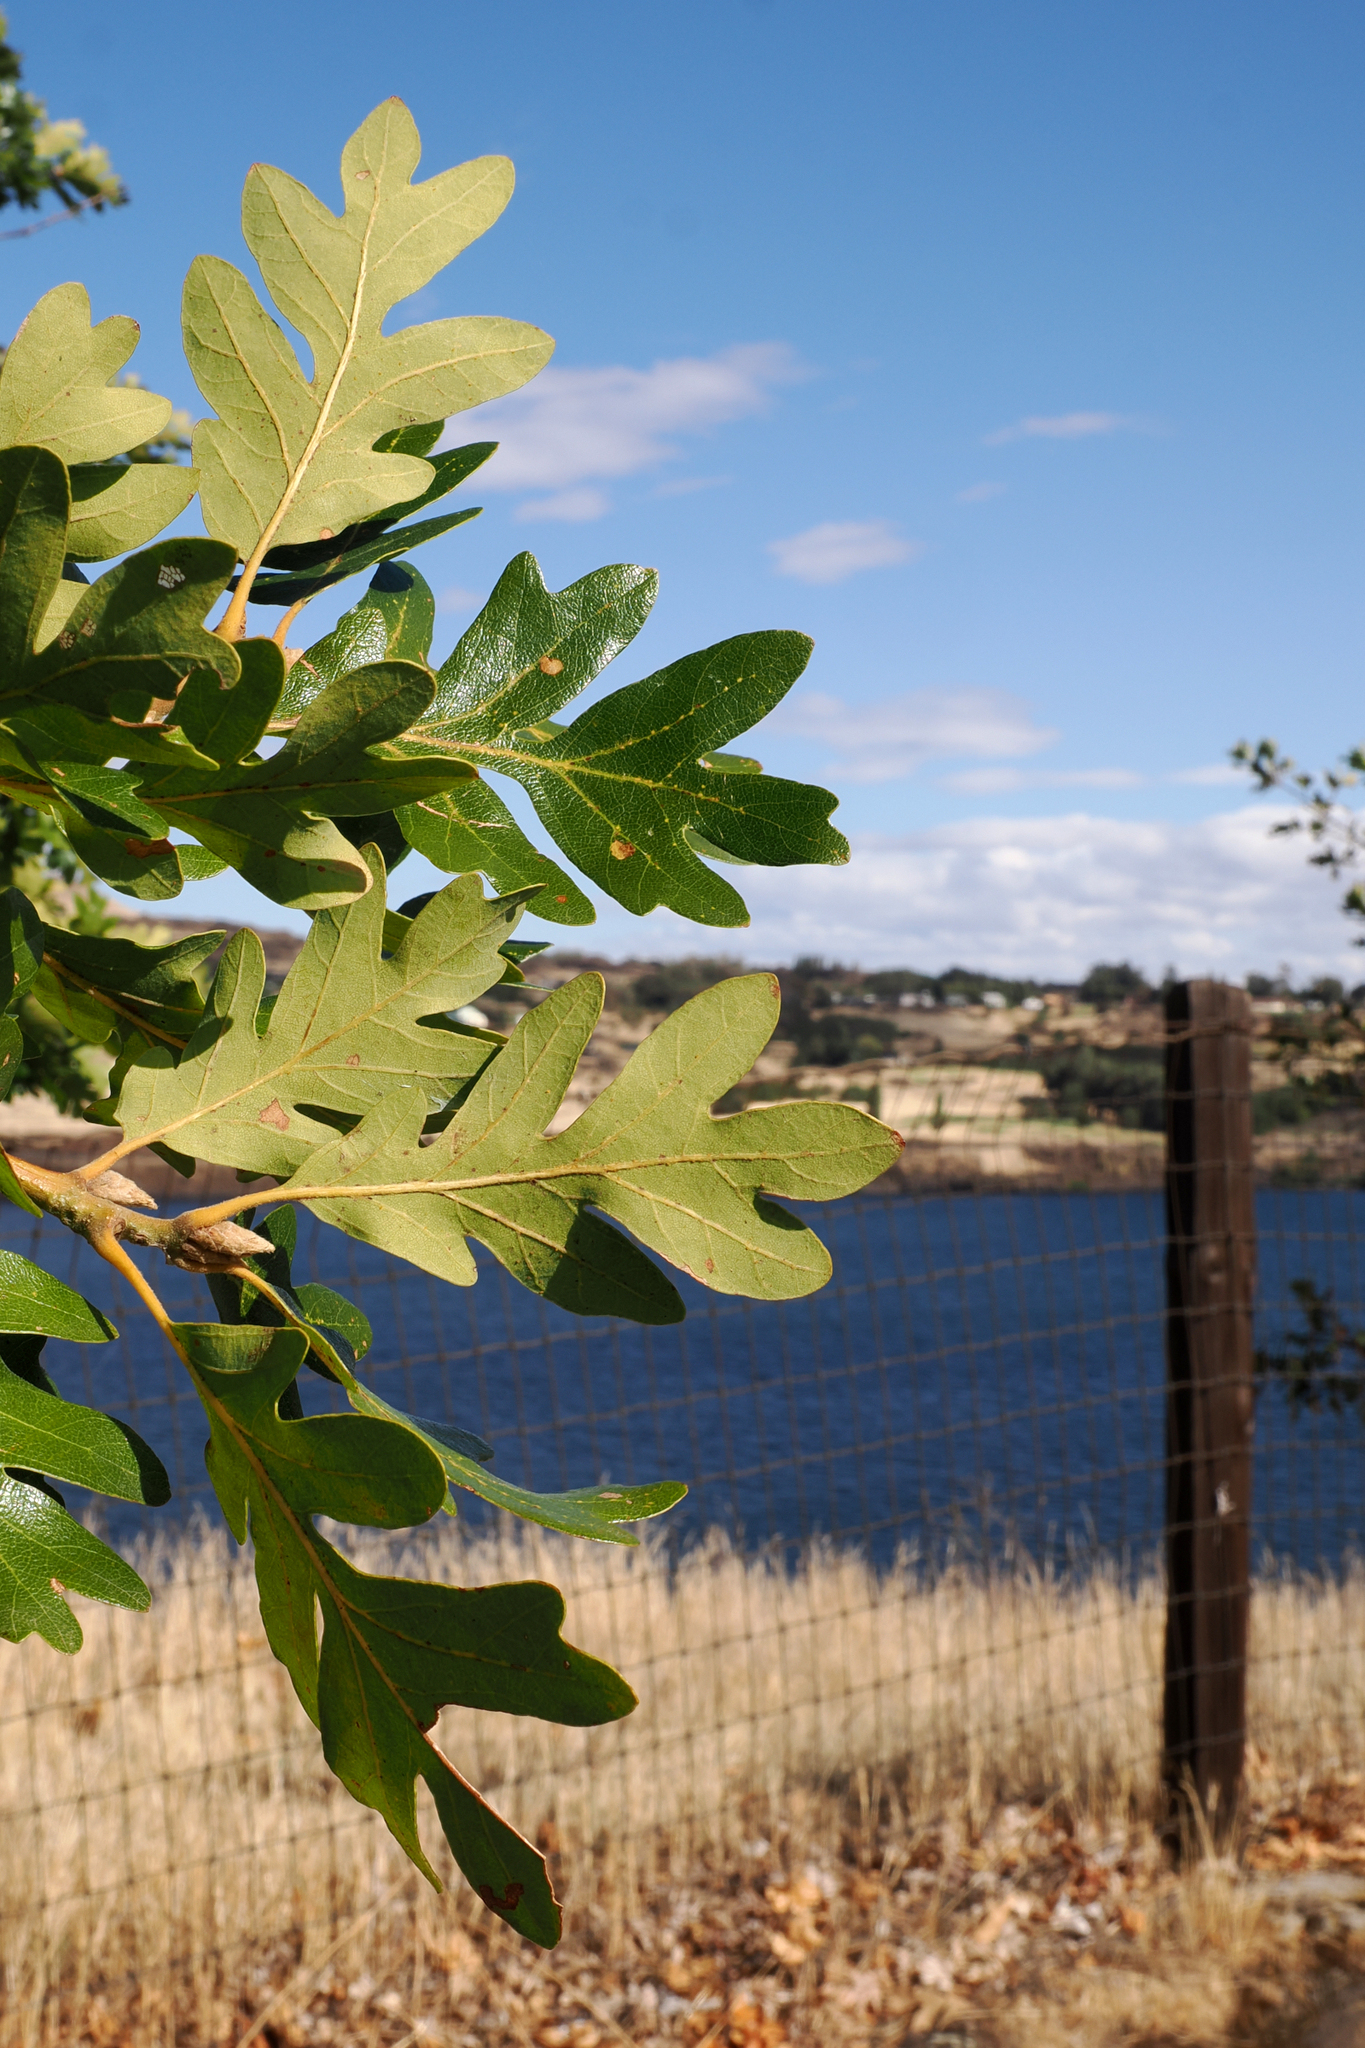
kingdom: Plantae
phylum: Tracheophyta
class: Magnoliopsida
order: Fagales
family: Fagaceae
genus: Quercus
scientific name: Quercus garryana
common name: Garry oak
